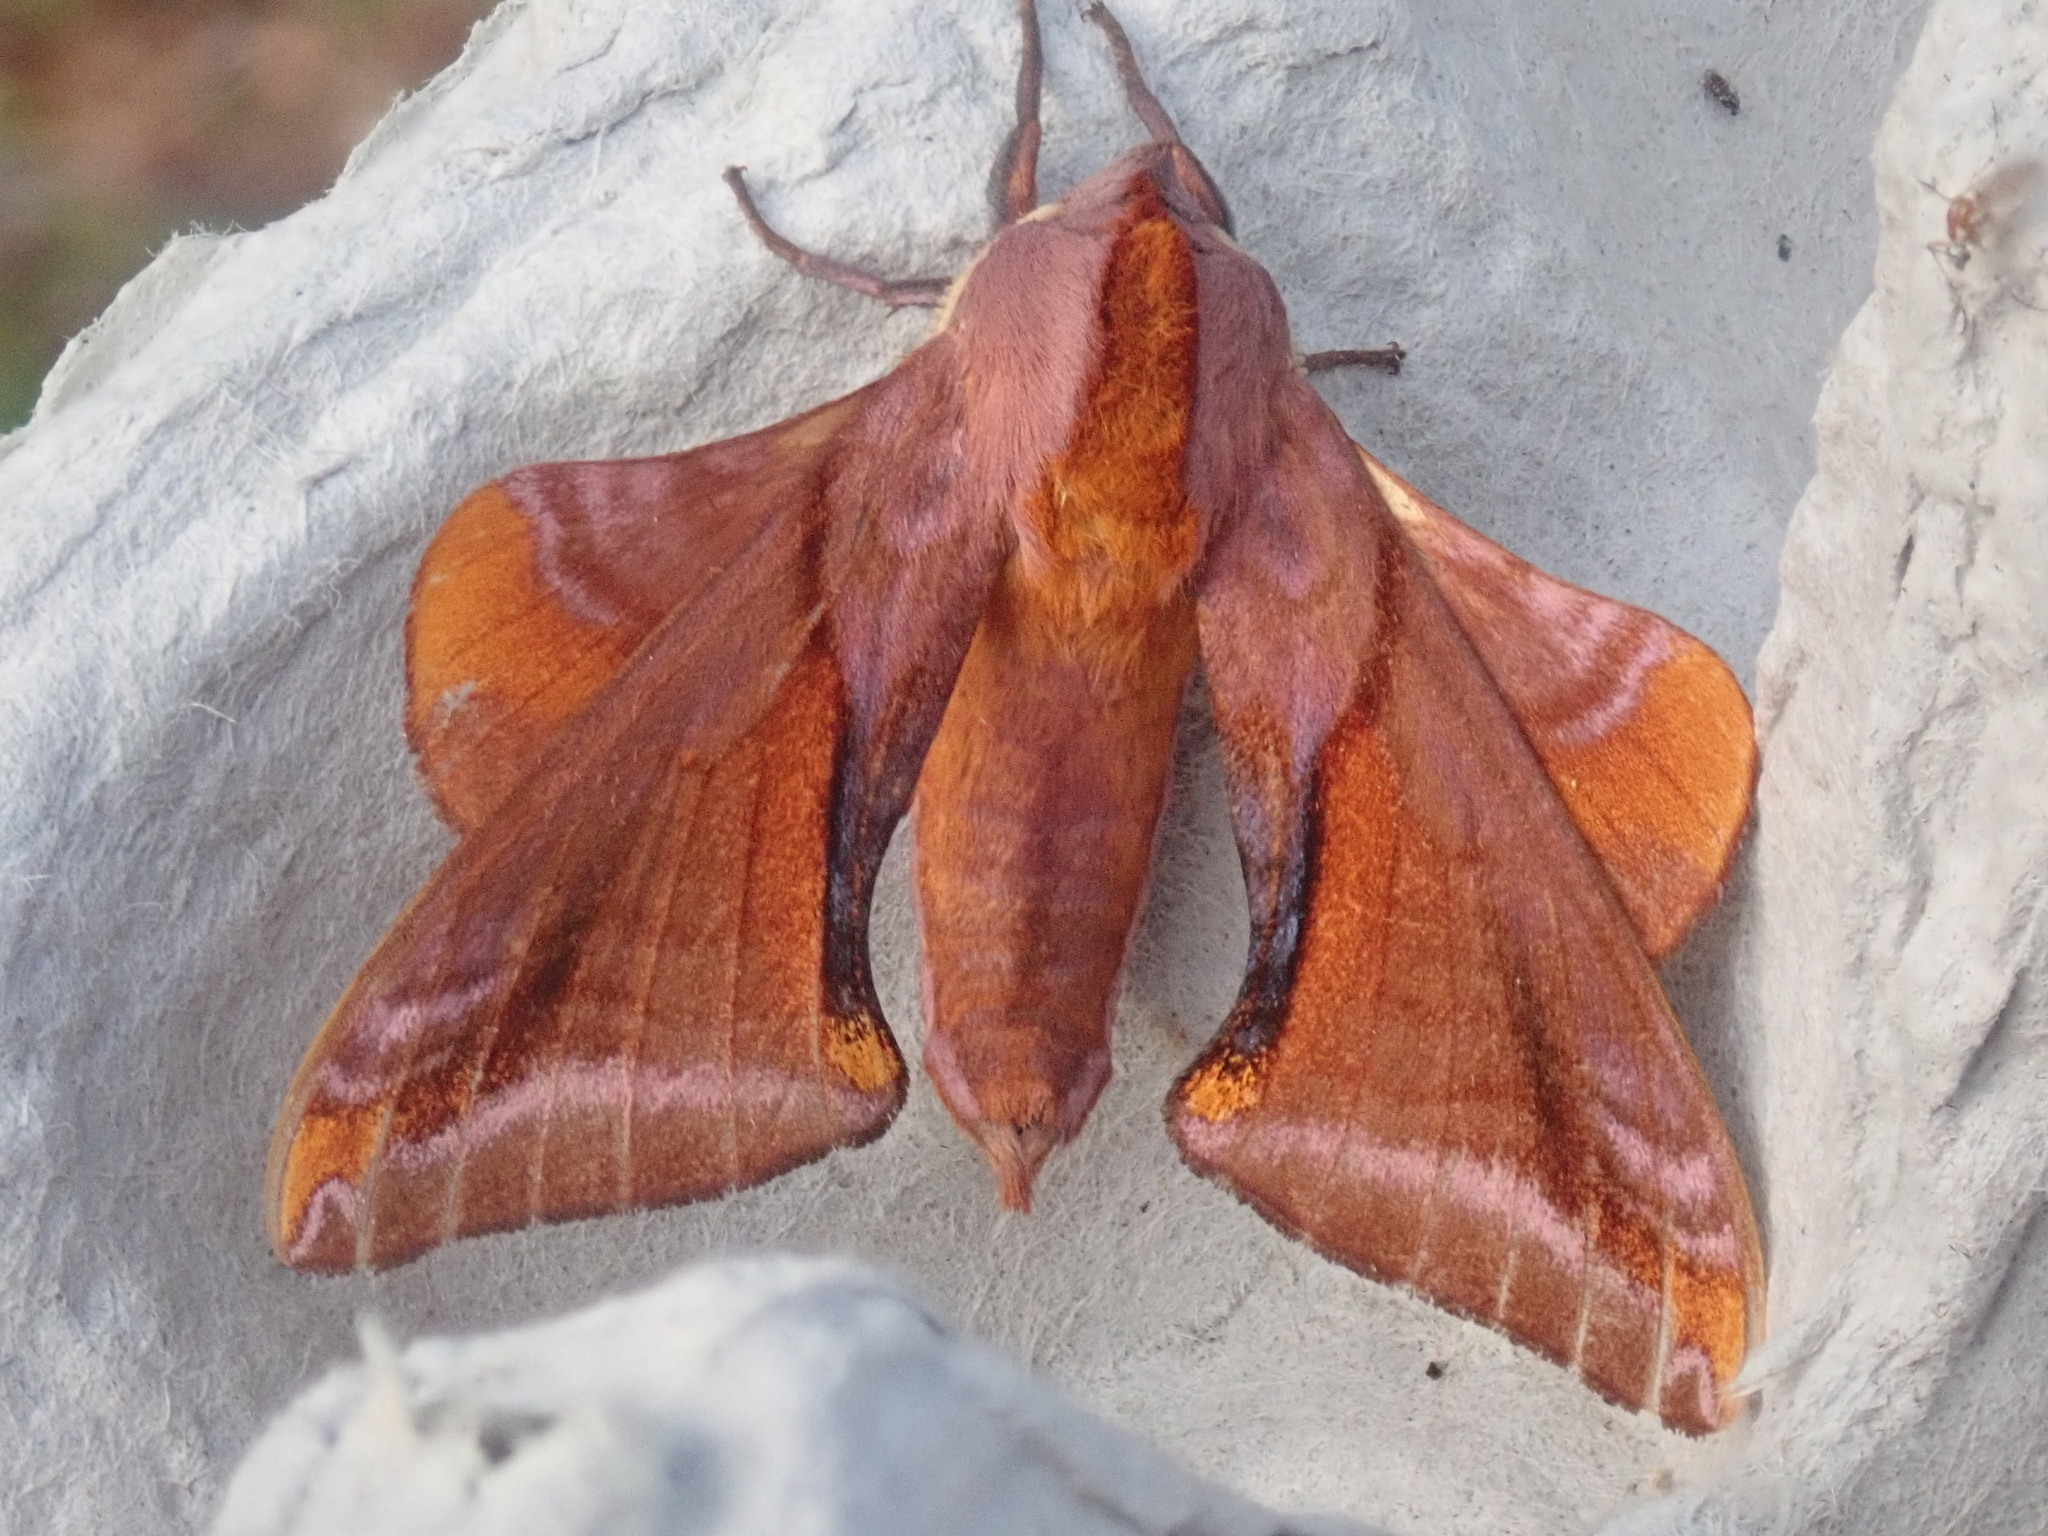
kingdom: Animalia
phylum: Arthropoda
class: Insecta
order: Lepidoptera
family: Sphingidae
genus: Paonias
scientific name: Paonias astylus
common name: Huckleberry sphinx
